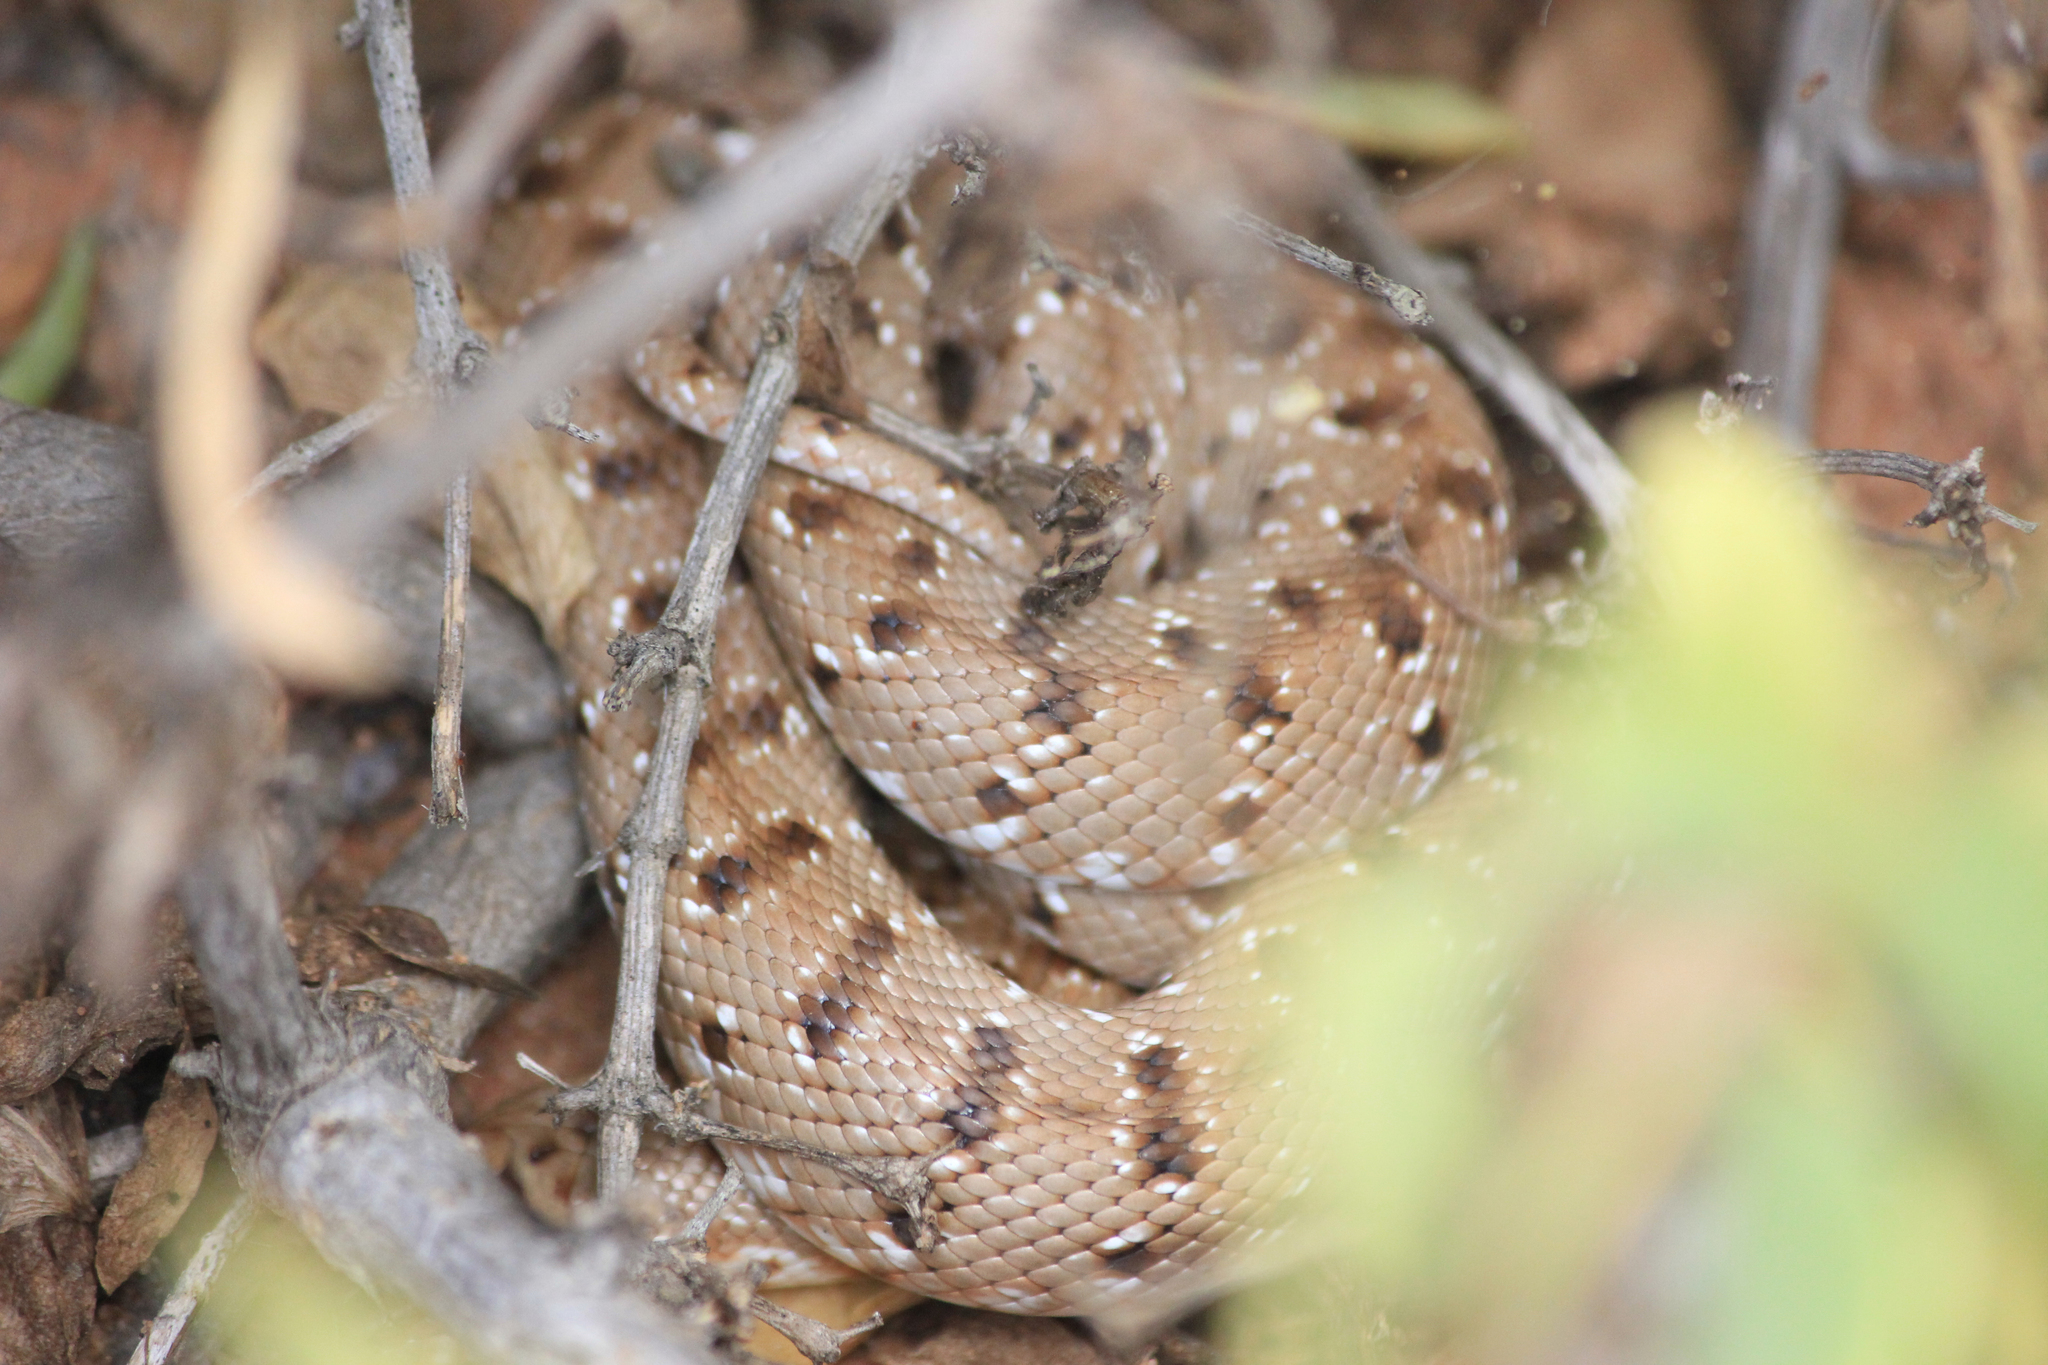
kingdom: Animalia
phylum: Chordata
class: Squamata
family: Pseudaspididae
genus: Pseudaspis
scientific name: Pseudaspis cana
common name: Mole snake
